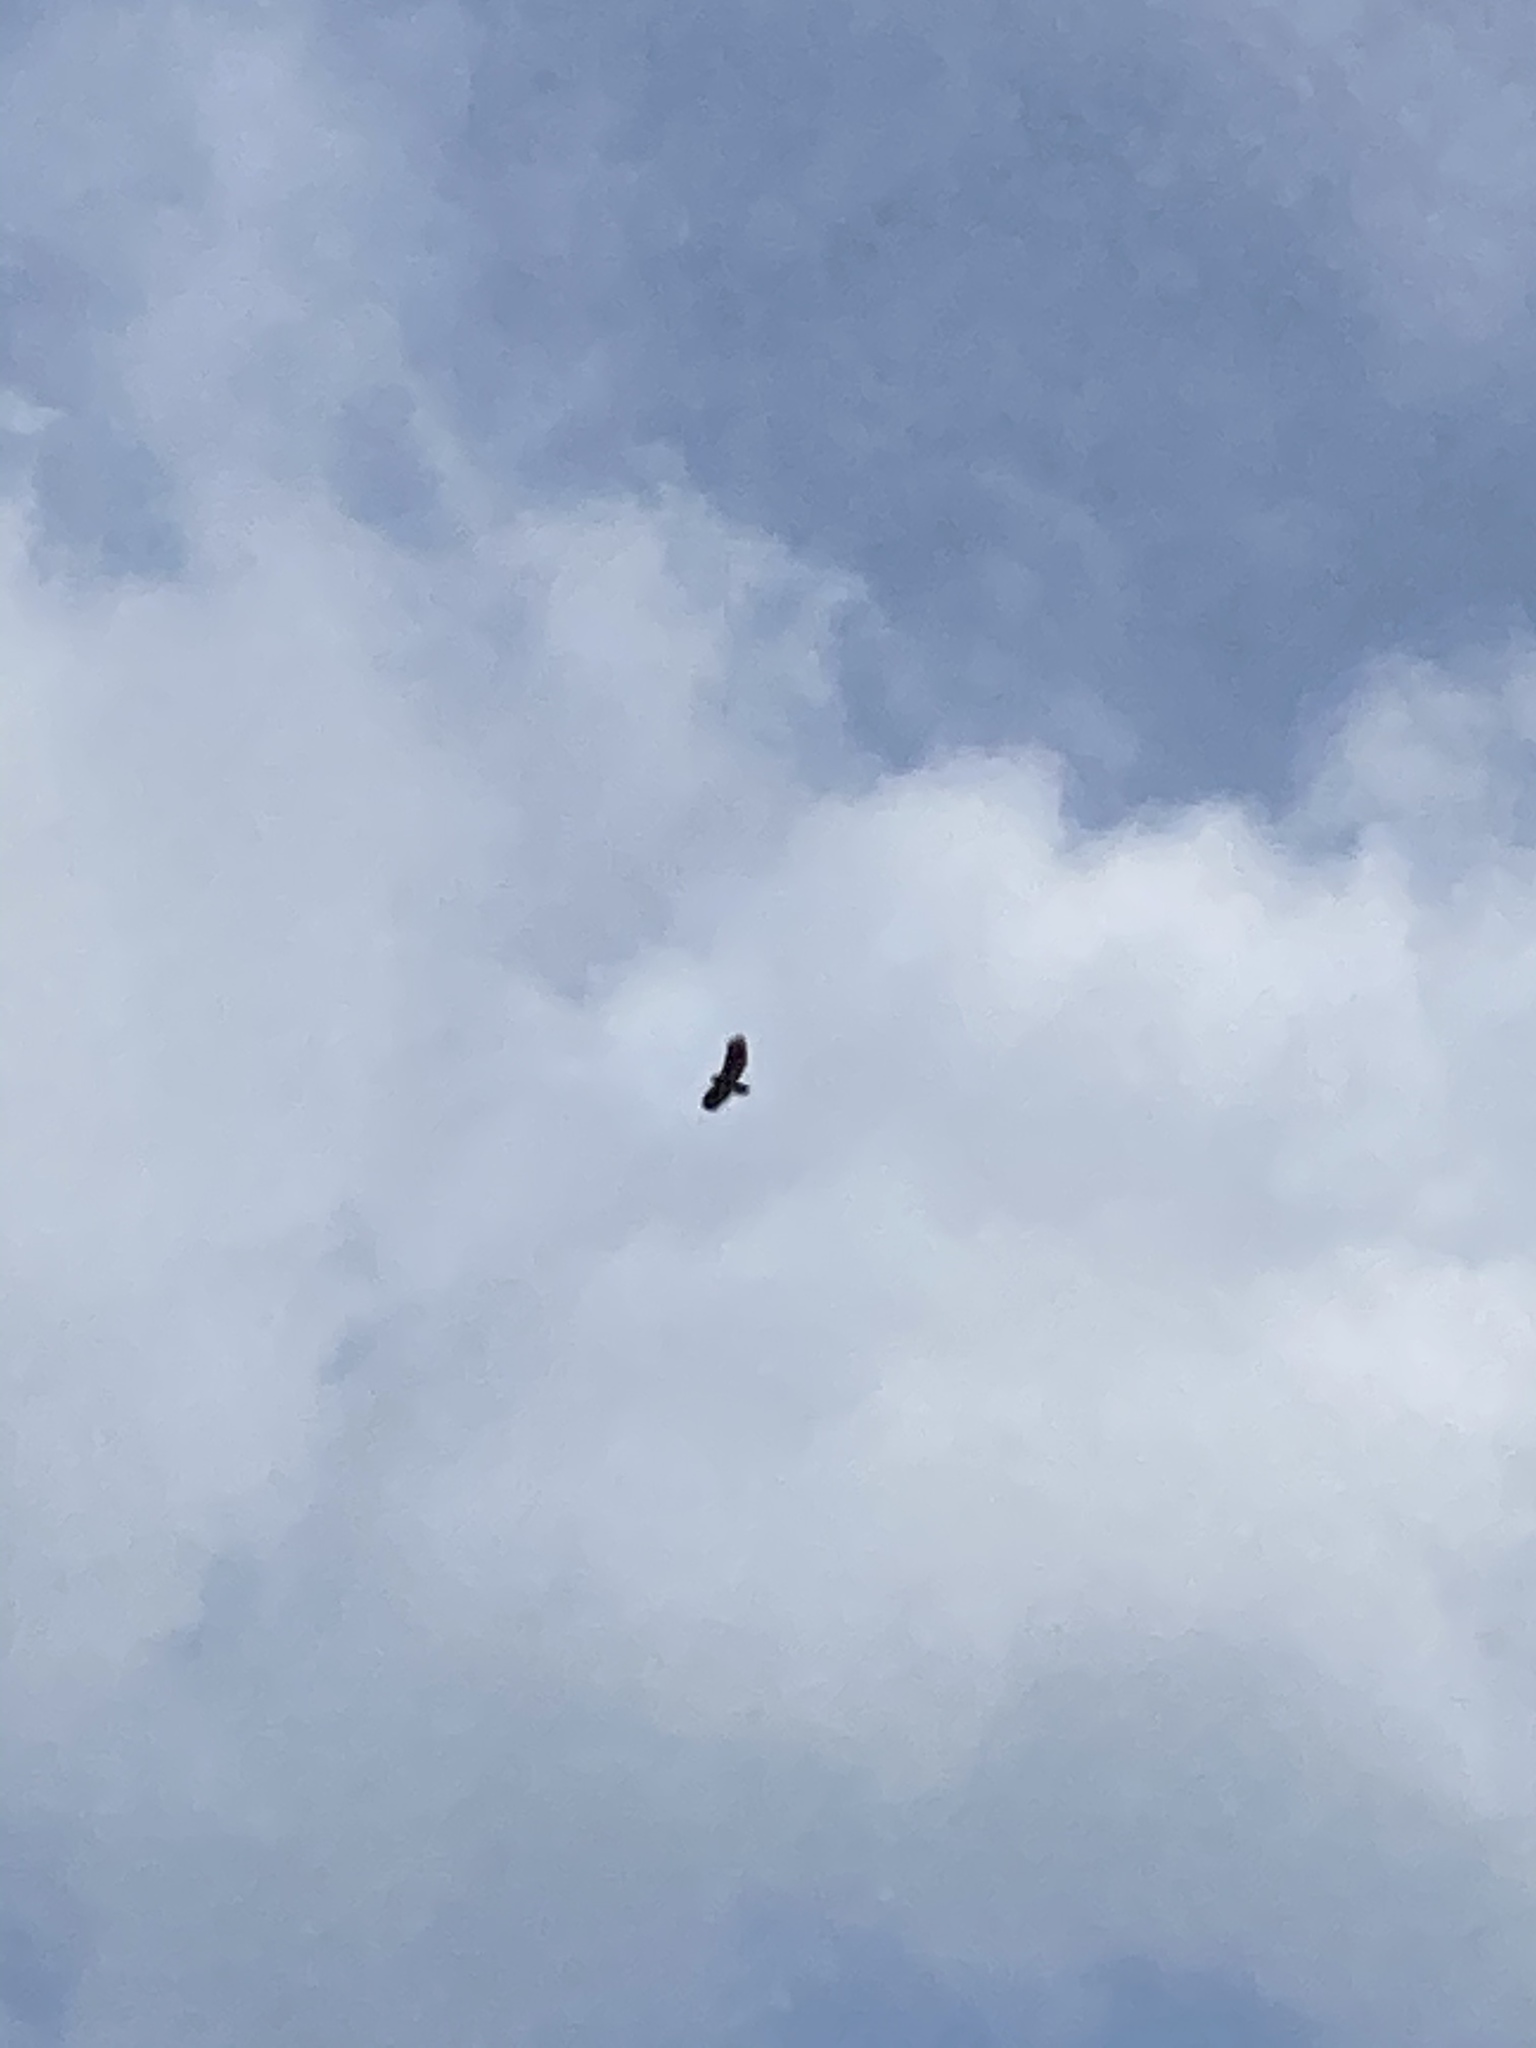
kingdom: Animalia
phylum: Chordata
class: Aves
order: Accipitriformes
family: Accipitridae
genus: Buteo
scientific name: Buteo jamaicensis
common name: Red-tailed hawk
